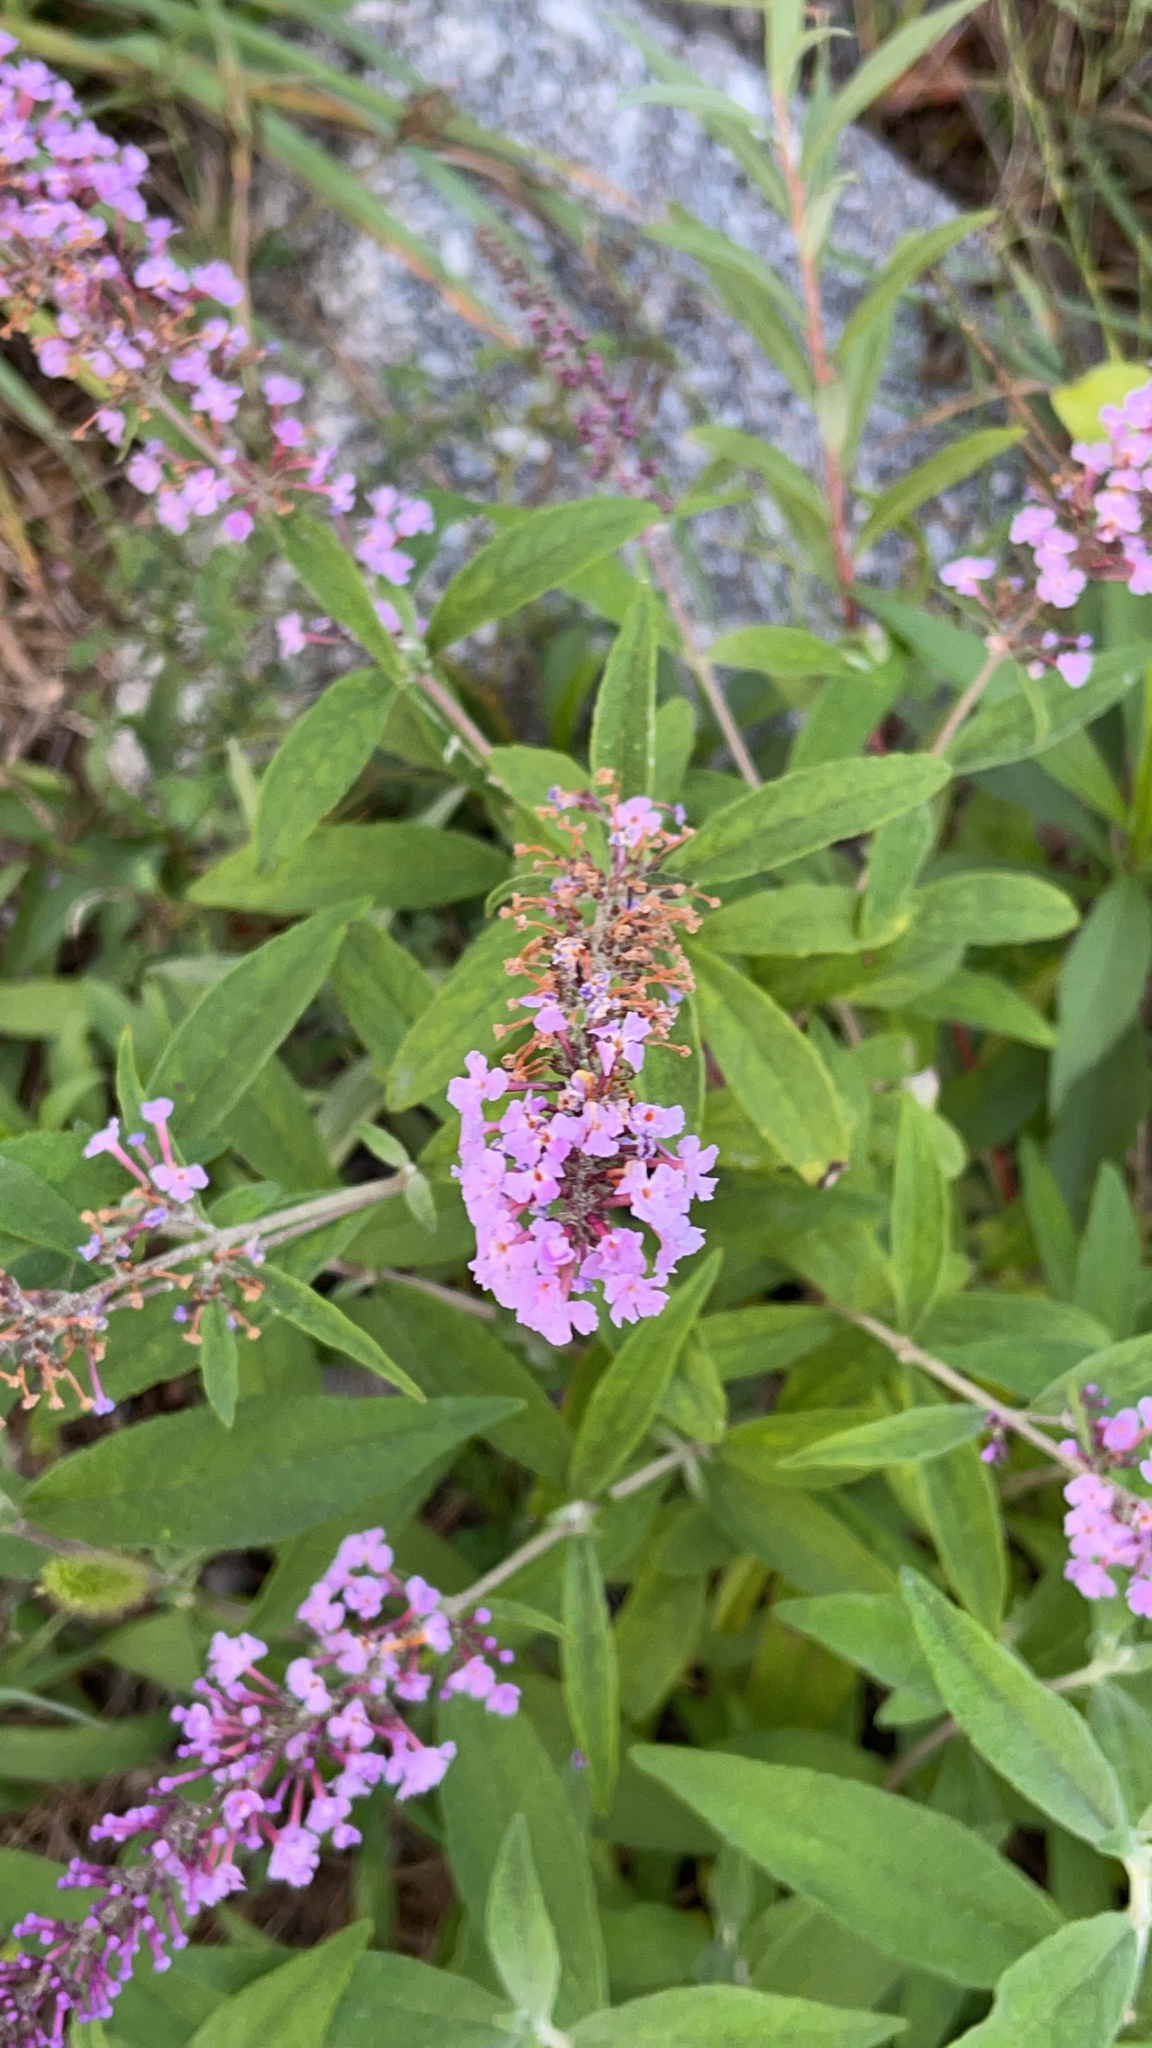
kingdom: Plantae
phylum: Tracheophyta
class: Magnoliopsida
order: Lamiales
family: Scrophulariaceae
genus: Buddleja
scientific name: Buddleja davidii
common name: Butterfly-bush
